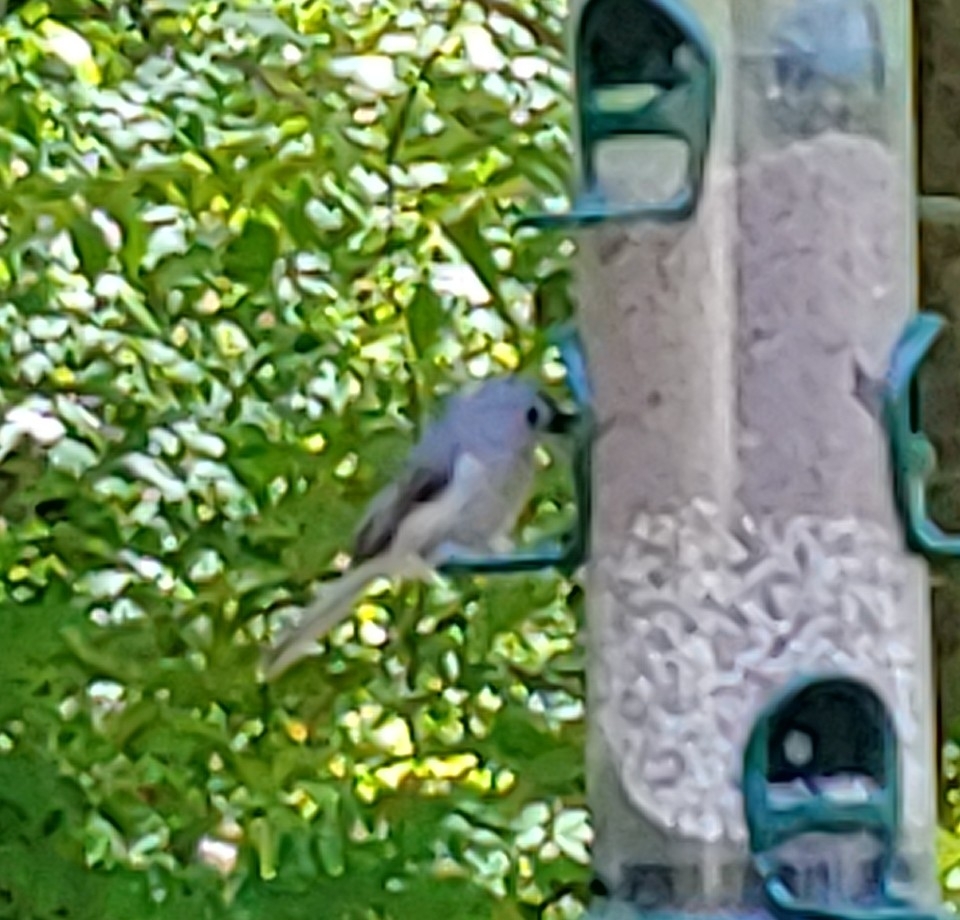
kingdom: Animalia
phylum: Chordata
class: Aves
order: Passeriformes
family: Paridae
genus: Baeolophus
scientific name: Baeolophus bicolor
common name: Tufted titmouse
